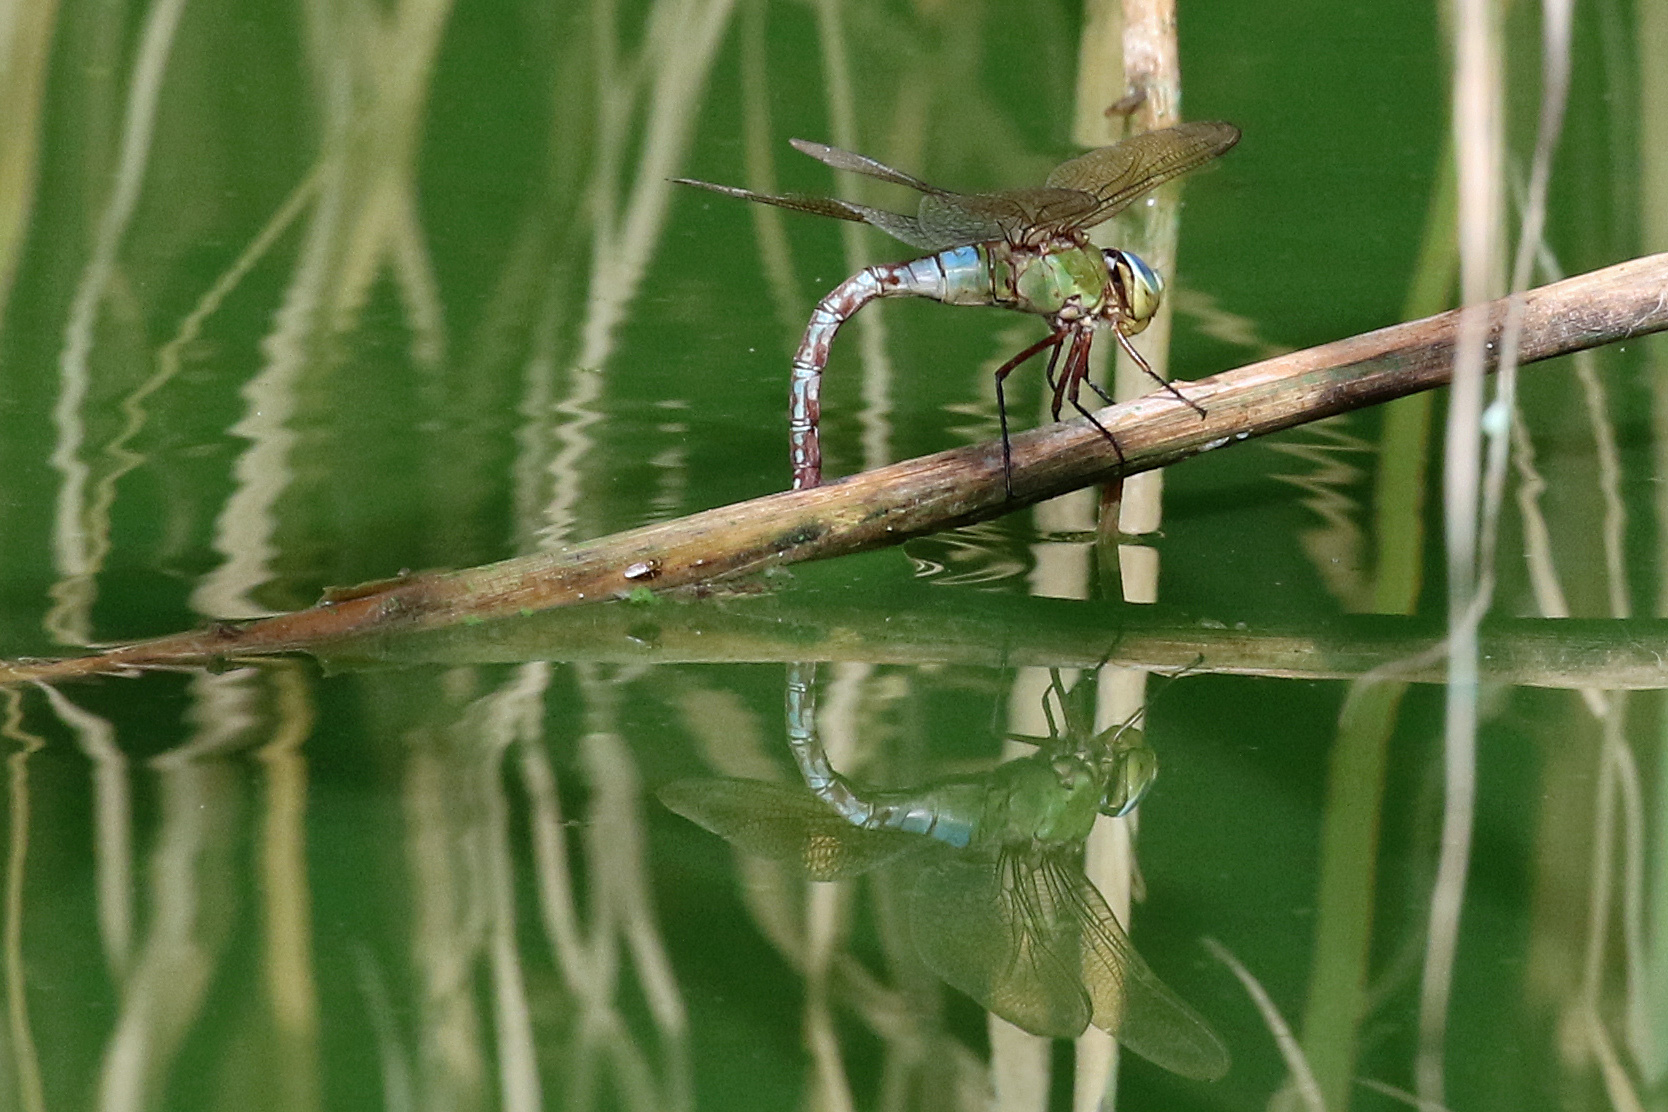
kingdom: Animalia
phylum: Arthropoda
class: Insecta
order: Odonata
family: Aeshnidae
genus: Anax
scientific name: Anax imperator
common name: Emperor dragonfly
